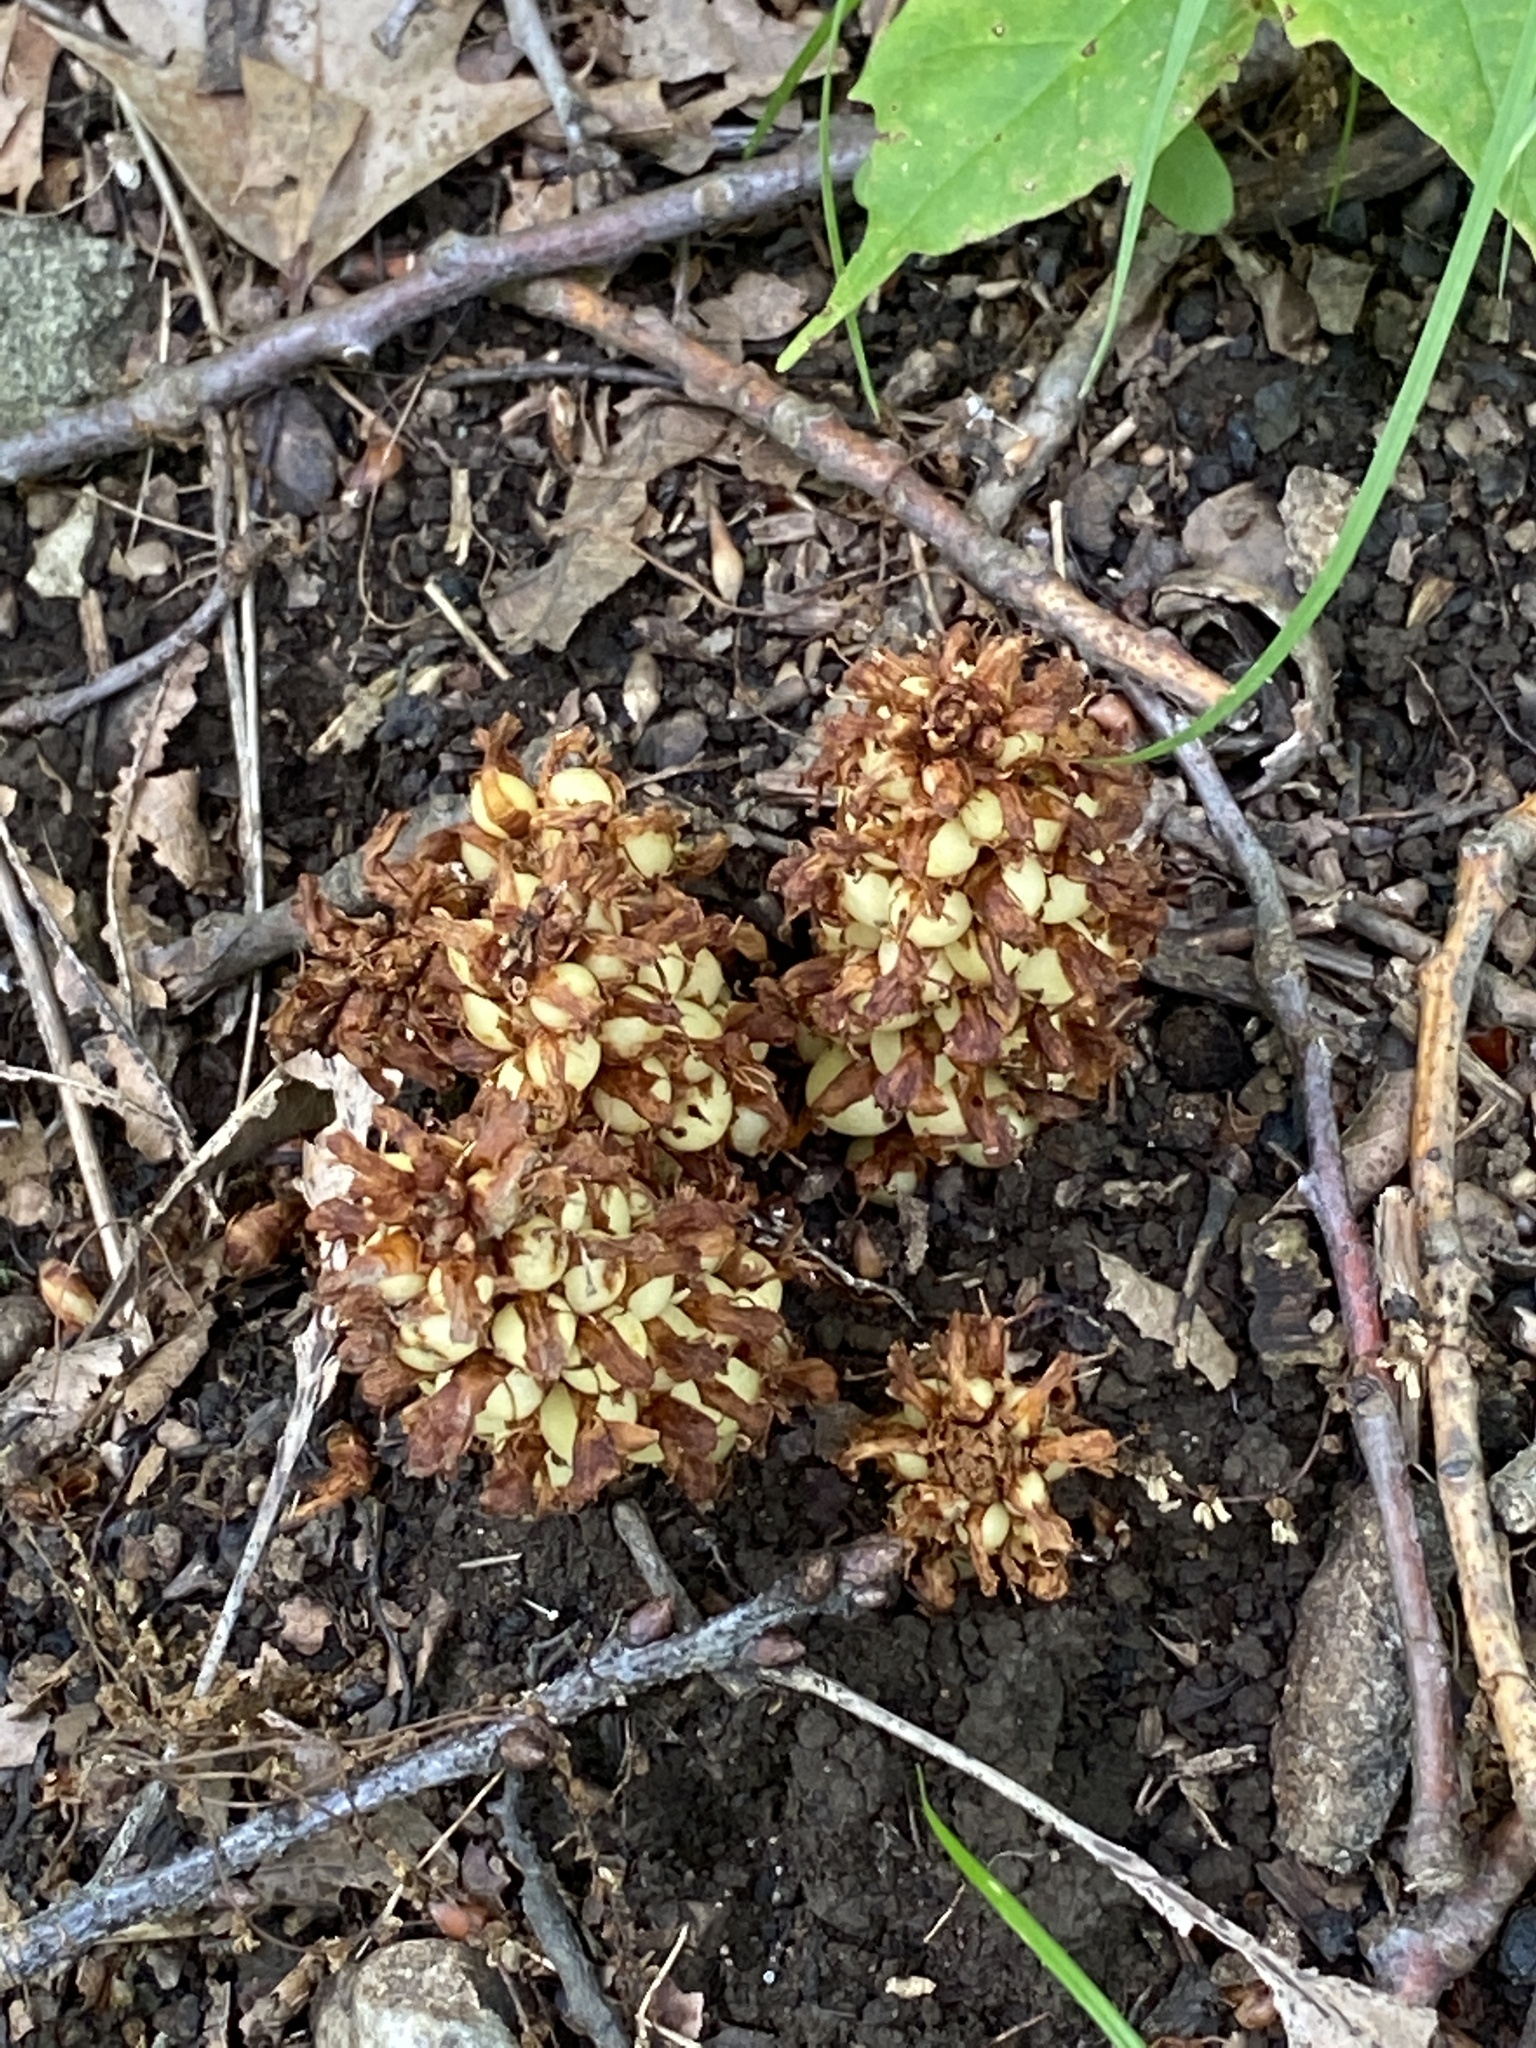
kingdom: Plantae
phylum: Tracheophyta
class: Magnoliopsida
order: Lamiales
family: Orobanchaceae
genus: Conopholis
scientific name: Conopholis americana
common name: American cancer-root
